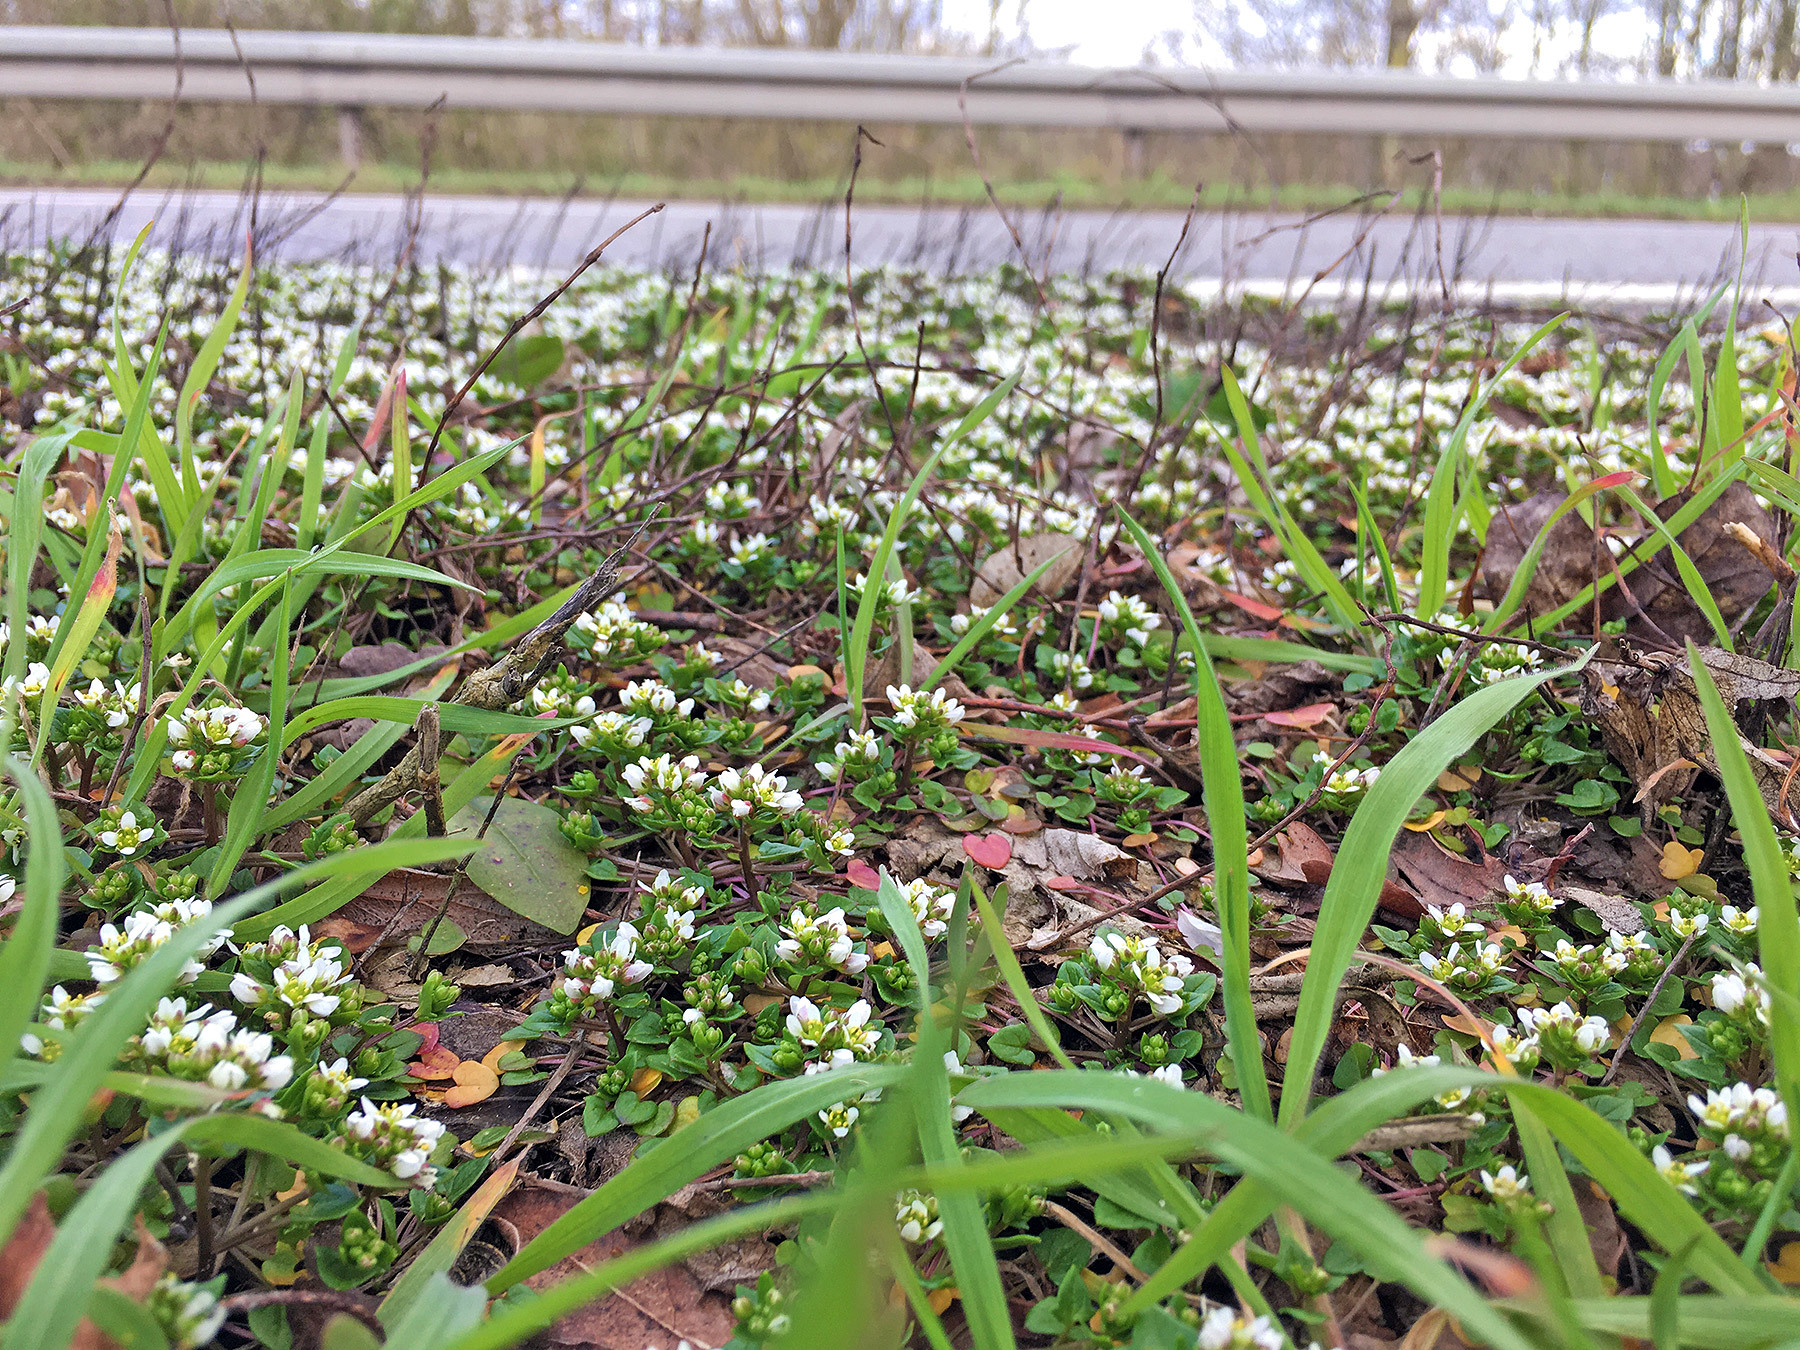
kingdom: Plantae
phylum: Tracheophyta
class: Magnoliopsida
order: Brassicales
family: Brassicaceae
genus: Cochlearia
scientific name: Cochlearia danica
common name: Early scurvygrass
